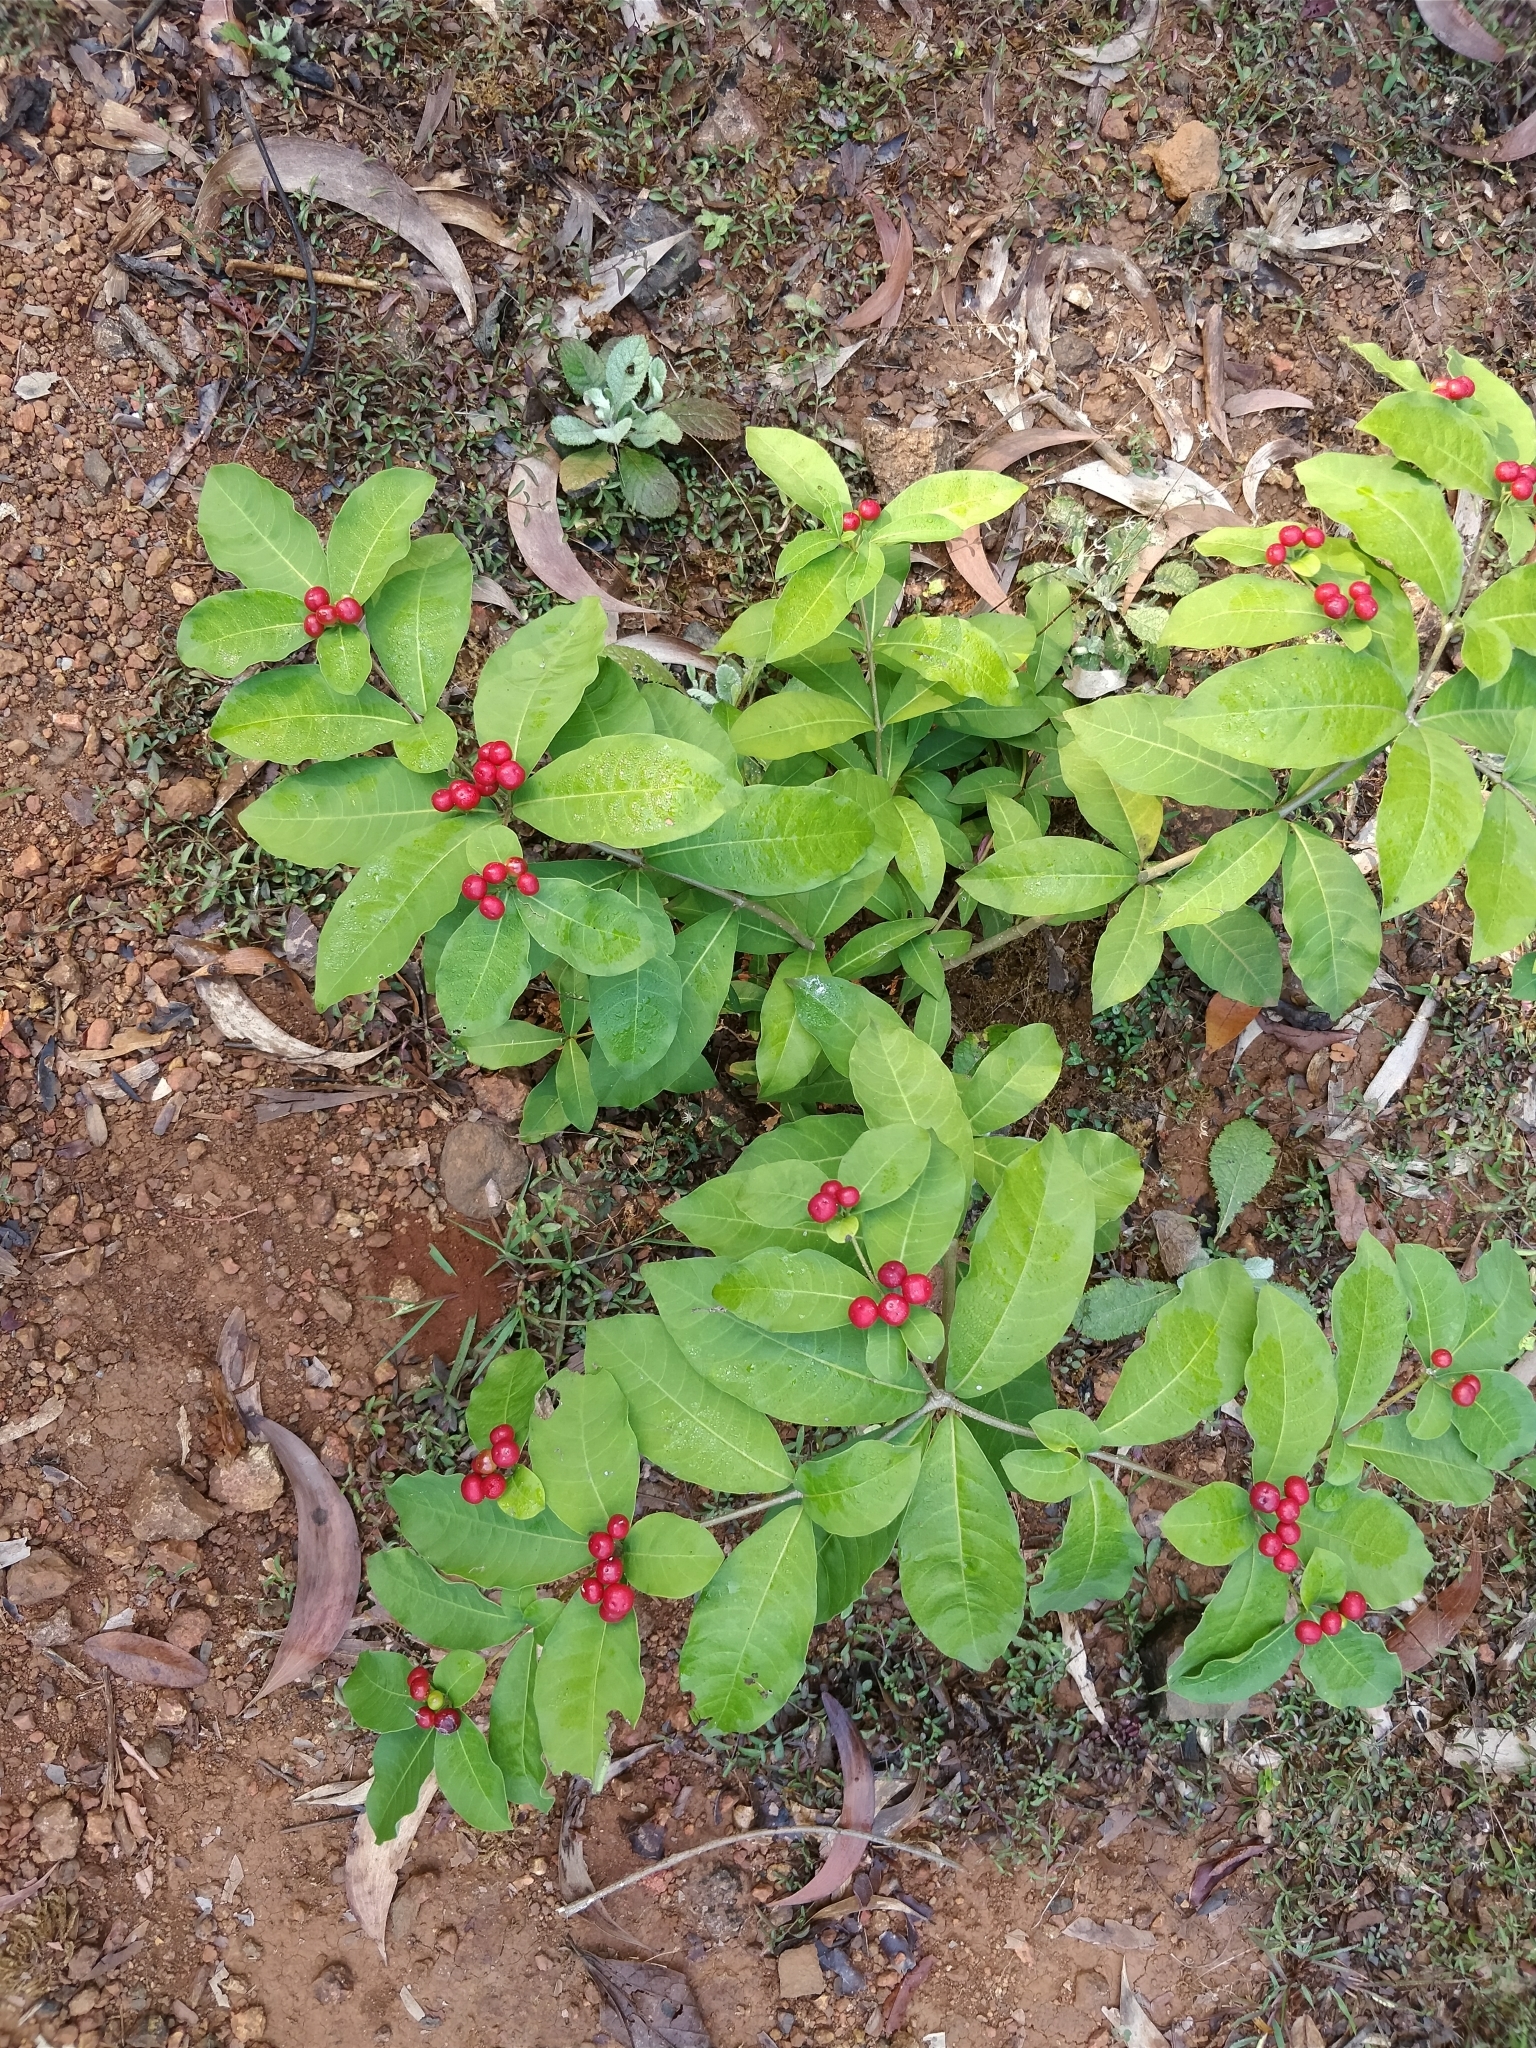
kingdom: Plantae
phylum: Tracheophyta
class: Magnoliopsida
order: Gentianales
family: Apocynaceae
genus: Rauvolfia
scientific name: Rauvolfia tetraphylla
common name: Four-leaf devil-pepper
